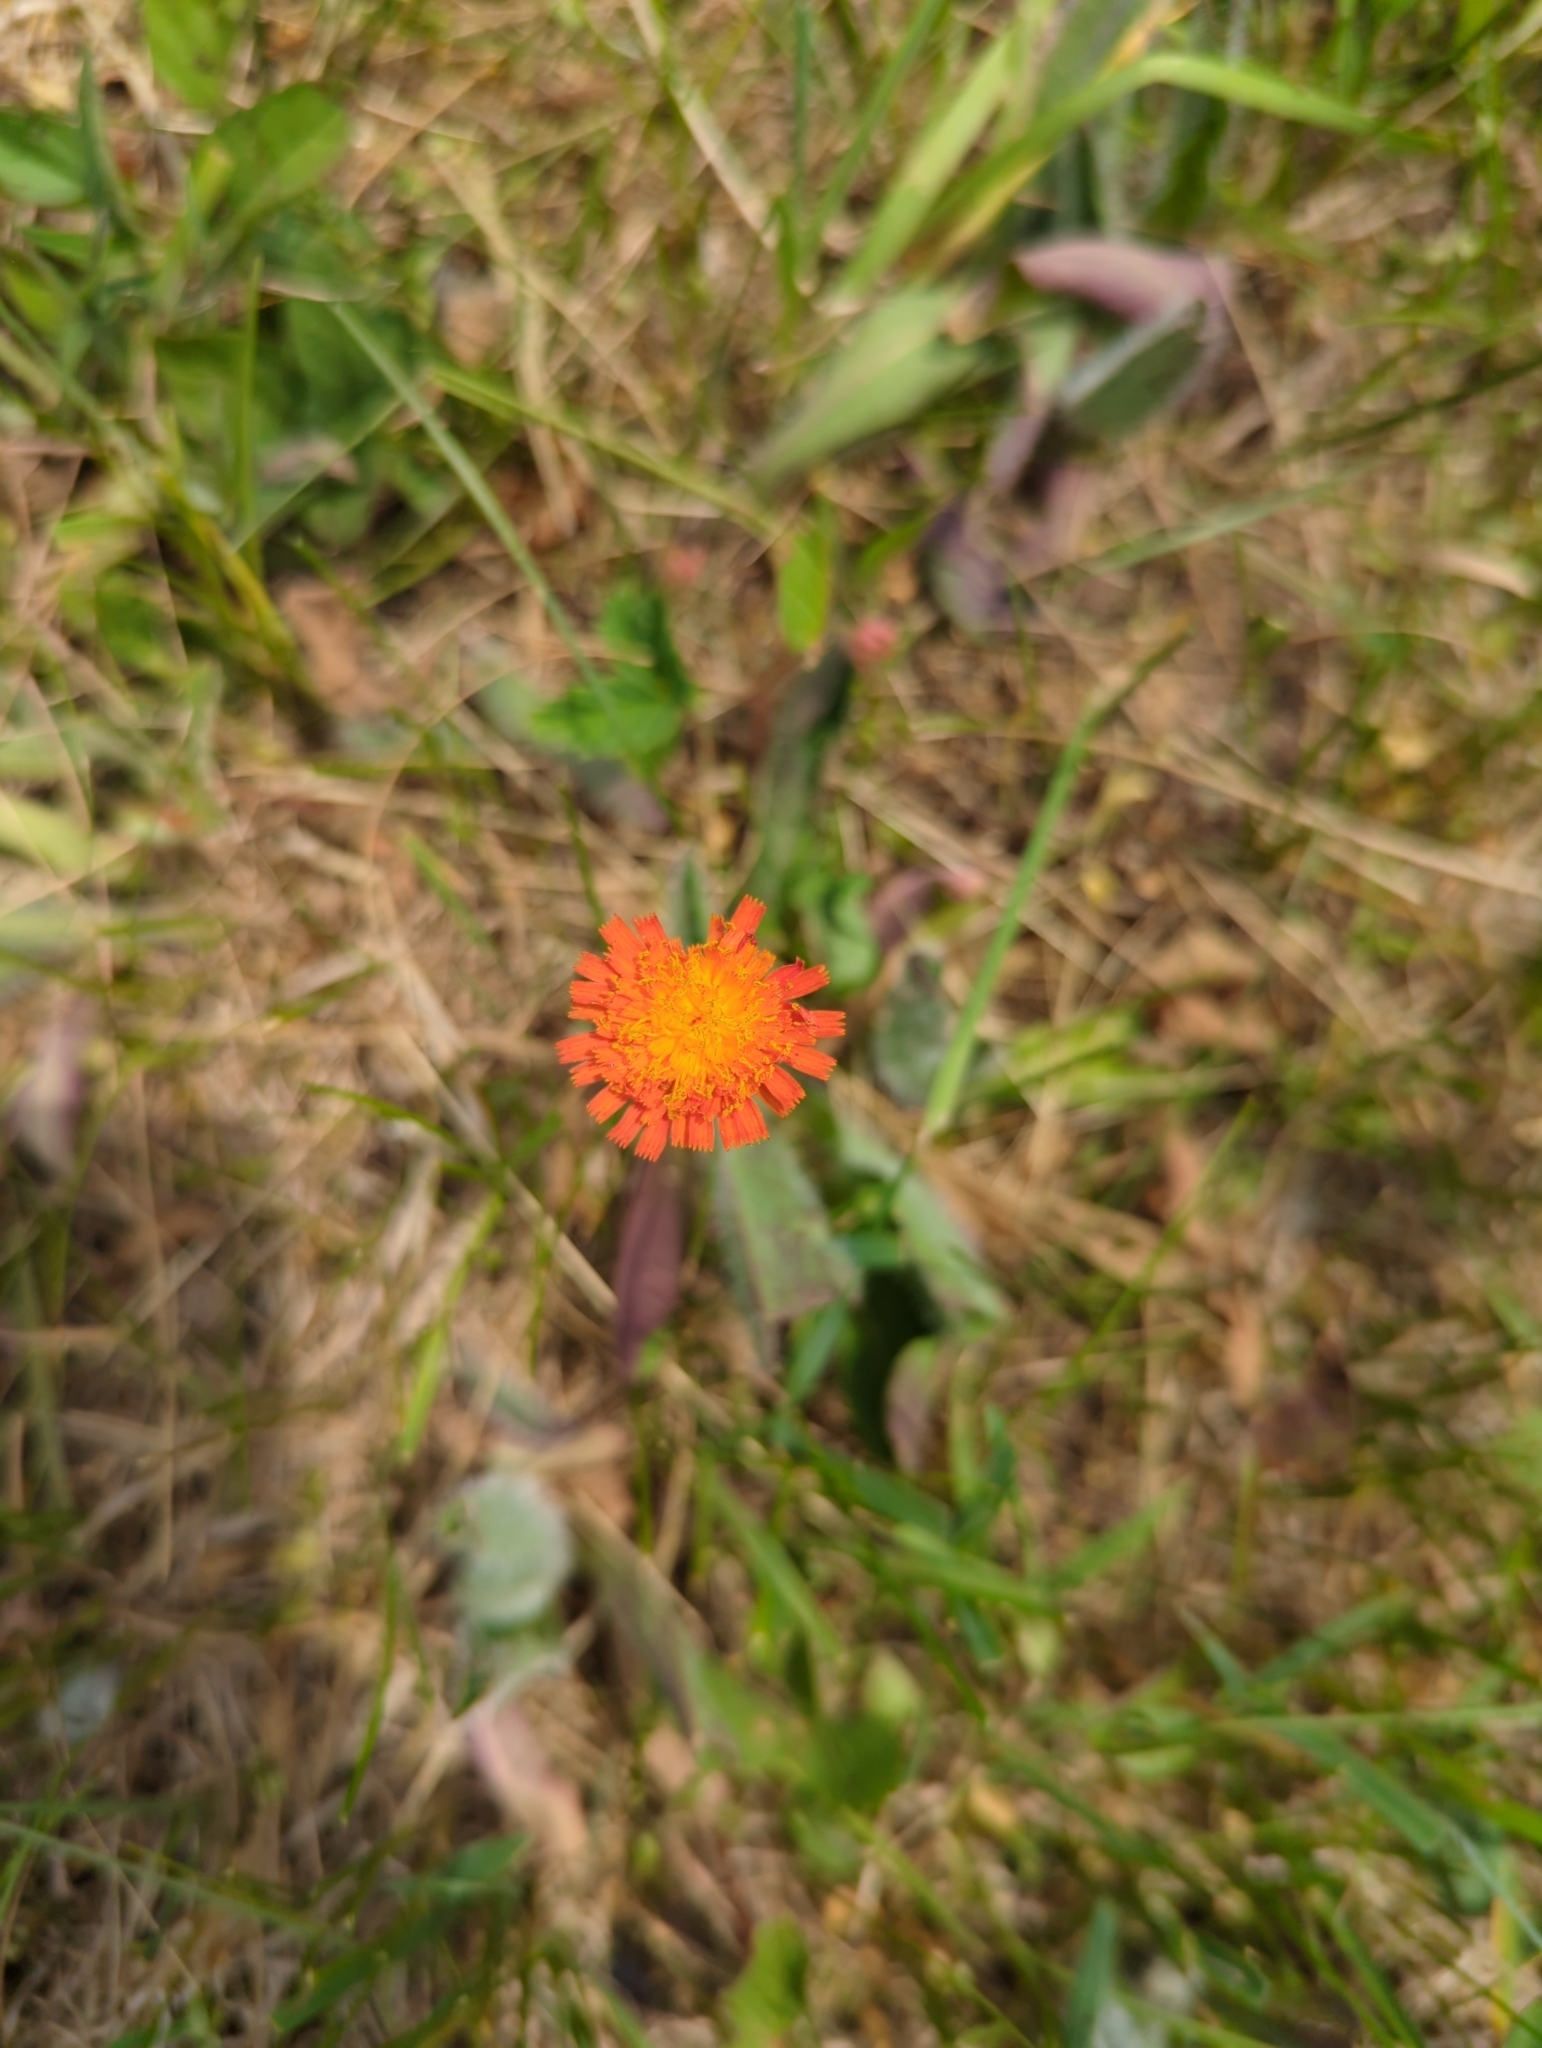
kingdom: Plantae
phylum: Tracheophyta
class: Magnoliopsida
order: Asterales
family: Asteraceae
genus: Pilosella
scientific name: Pilosella aurantiaca
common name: Fox-and-cubs
